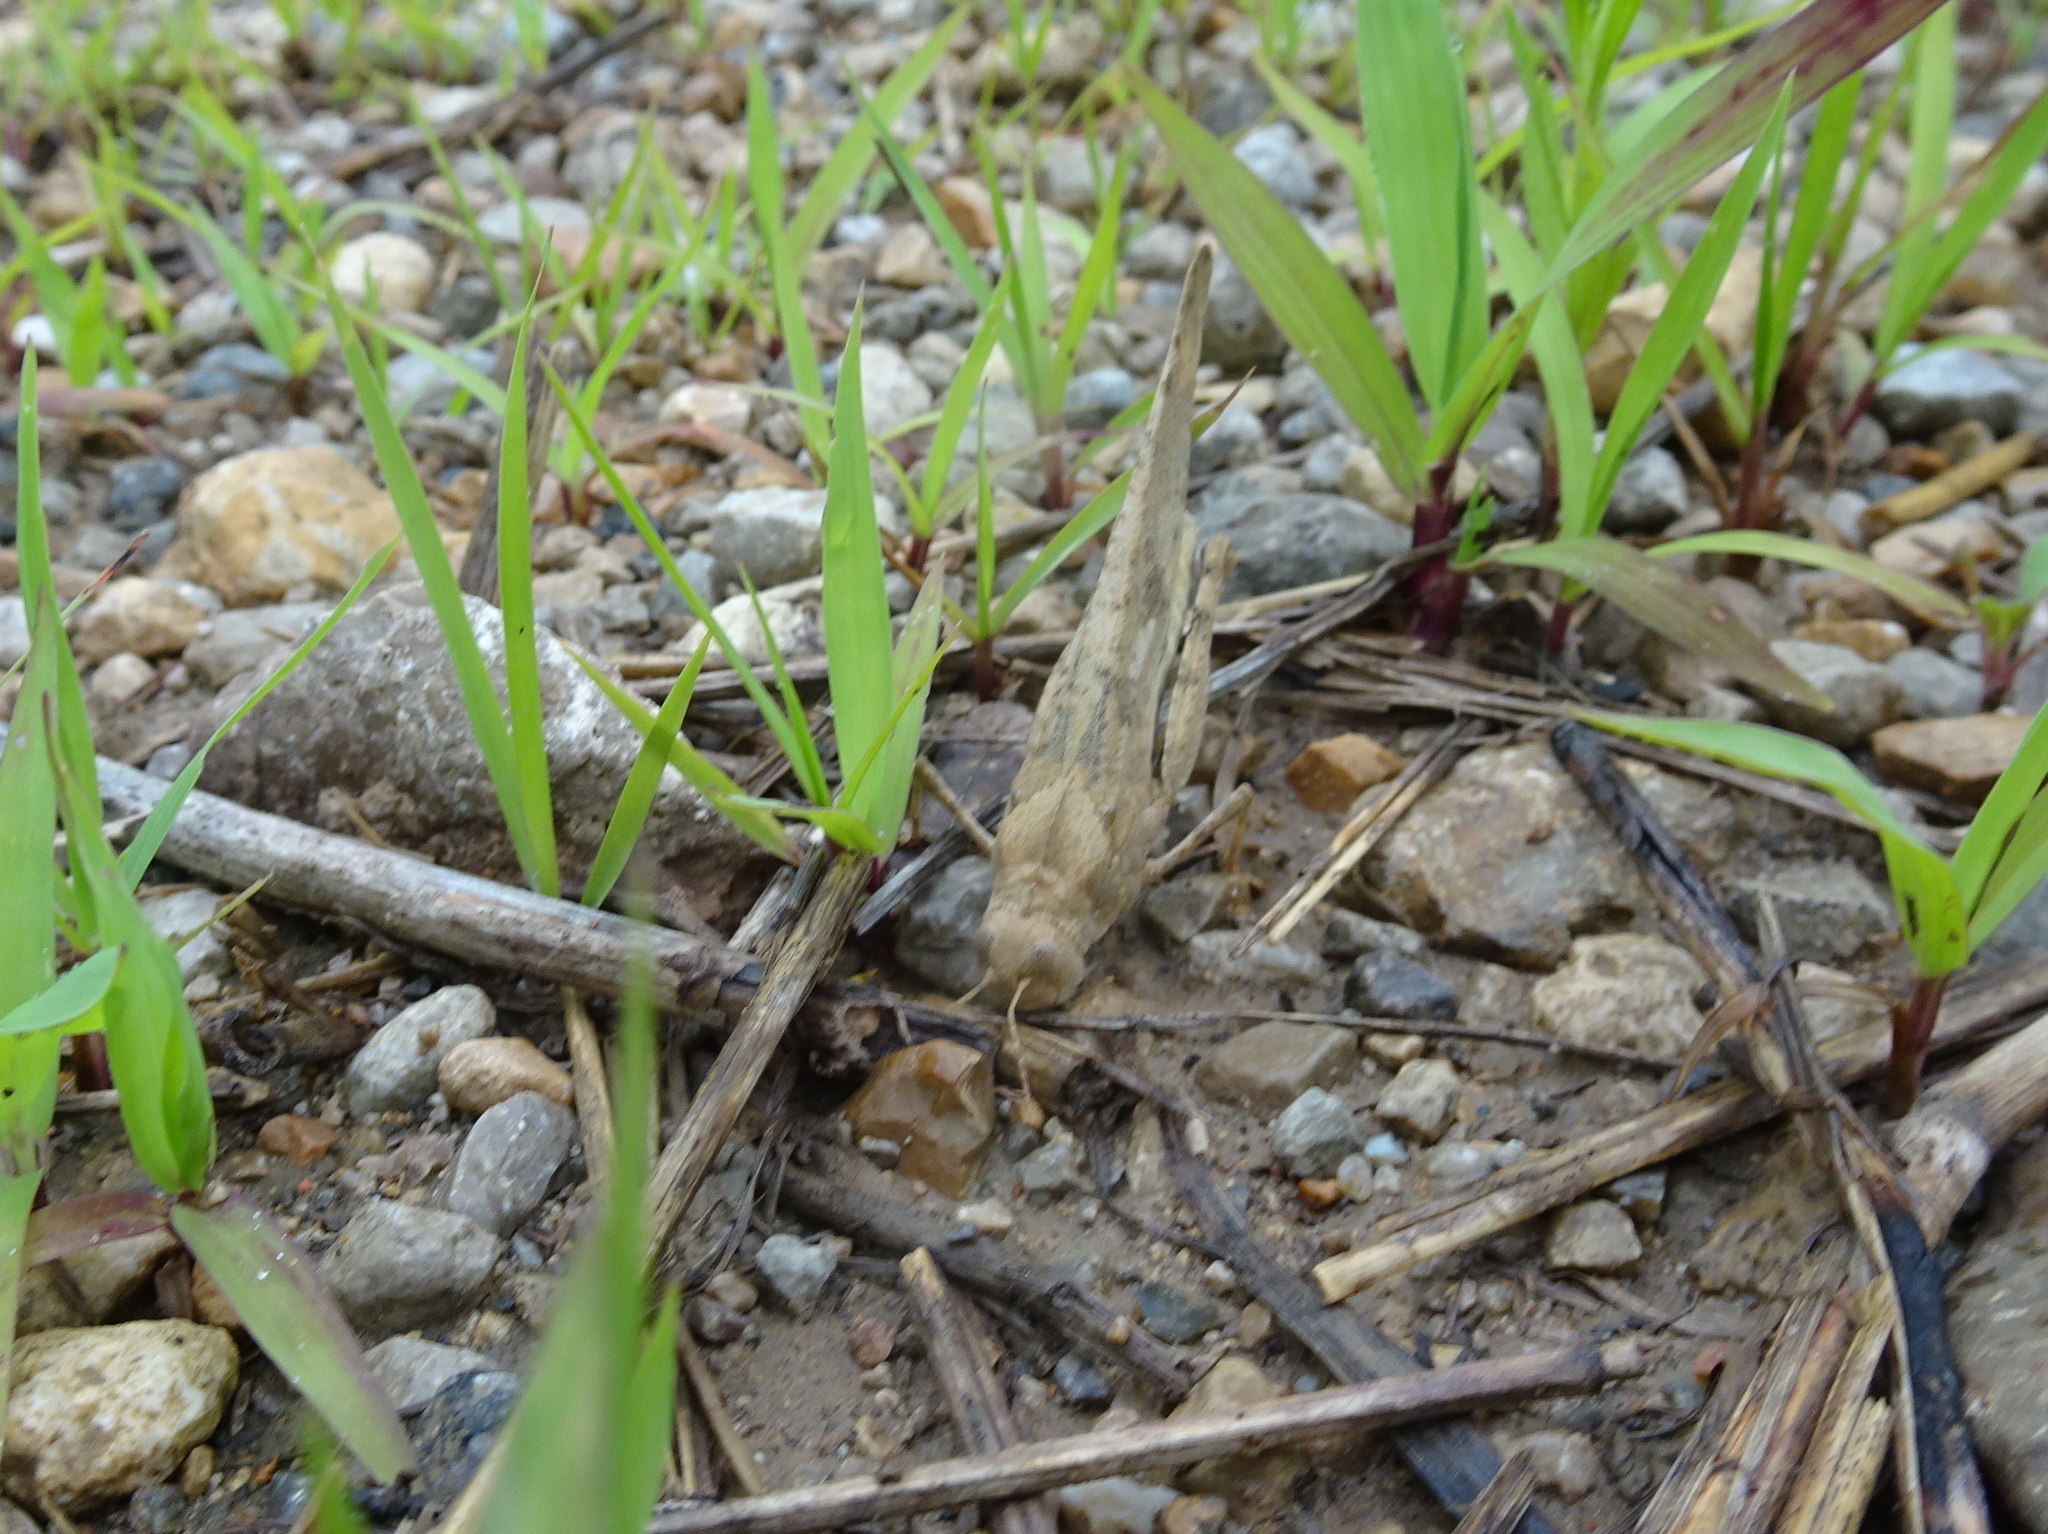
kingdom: Animalia
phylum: Arthropoda
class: Insecta
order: Orthoptera
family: Acrididae
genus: Dissosteira
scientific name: Dissosteira carolina
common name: Carolina grasshopper
